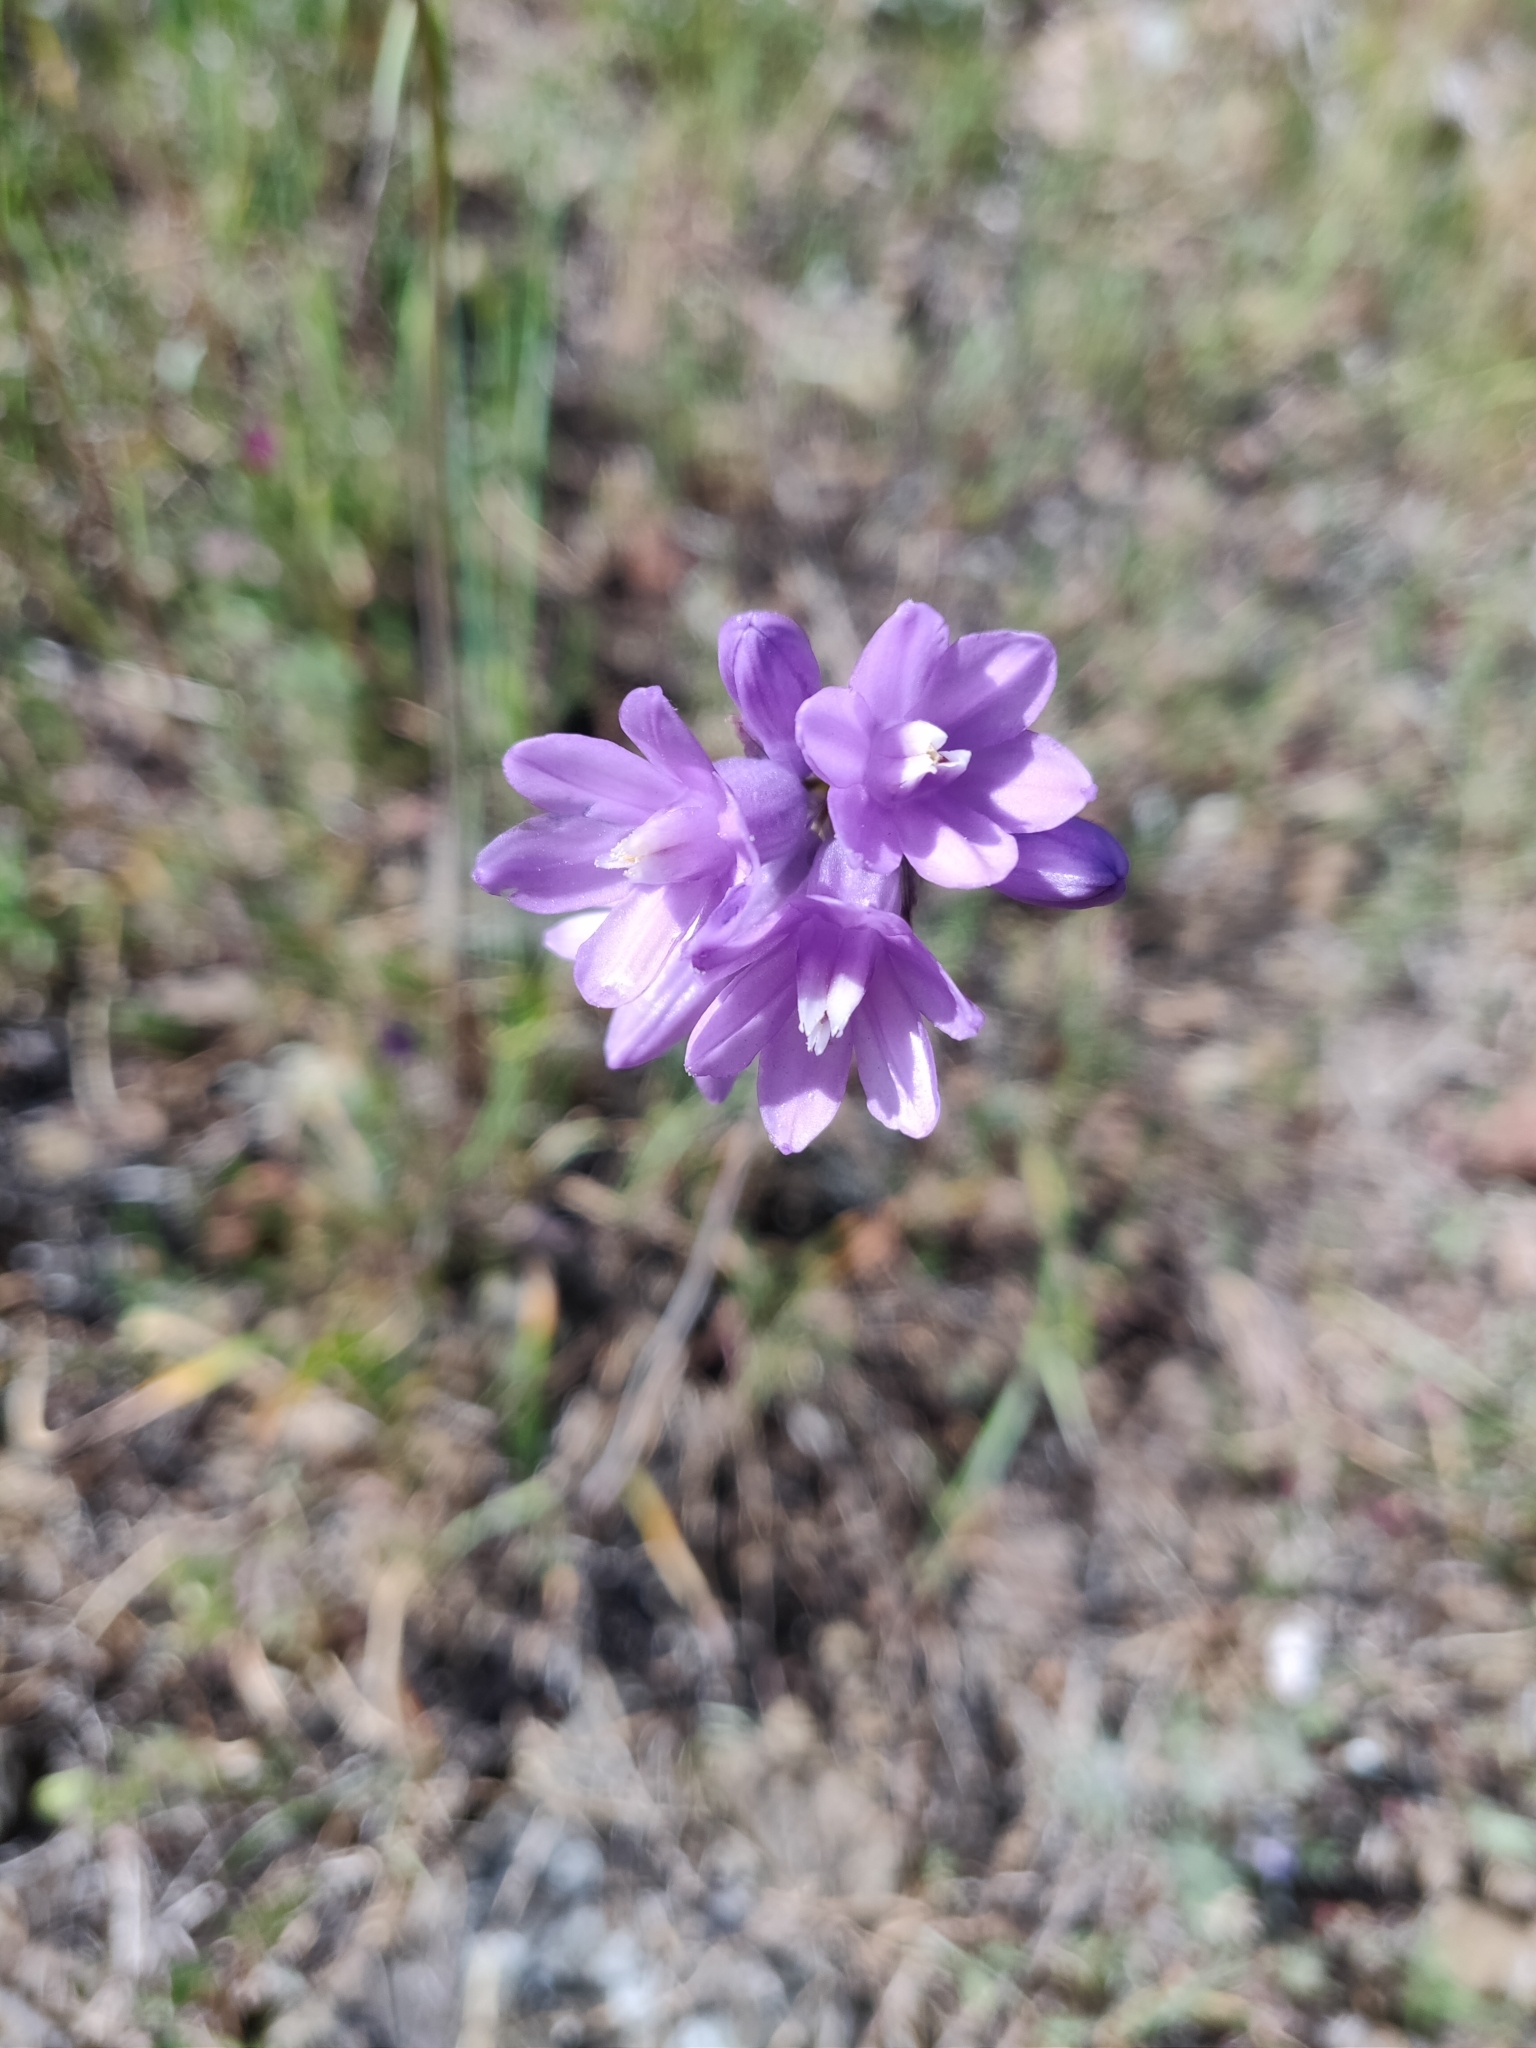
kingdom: Plantae
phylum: Tracheophyta
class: Liliopsida
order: Asparagales
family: Asparagaceae
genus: Dipterostemon
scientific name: Dipterostemon capitatus
